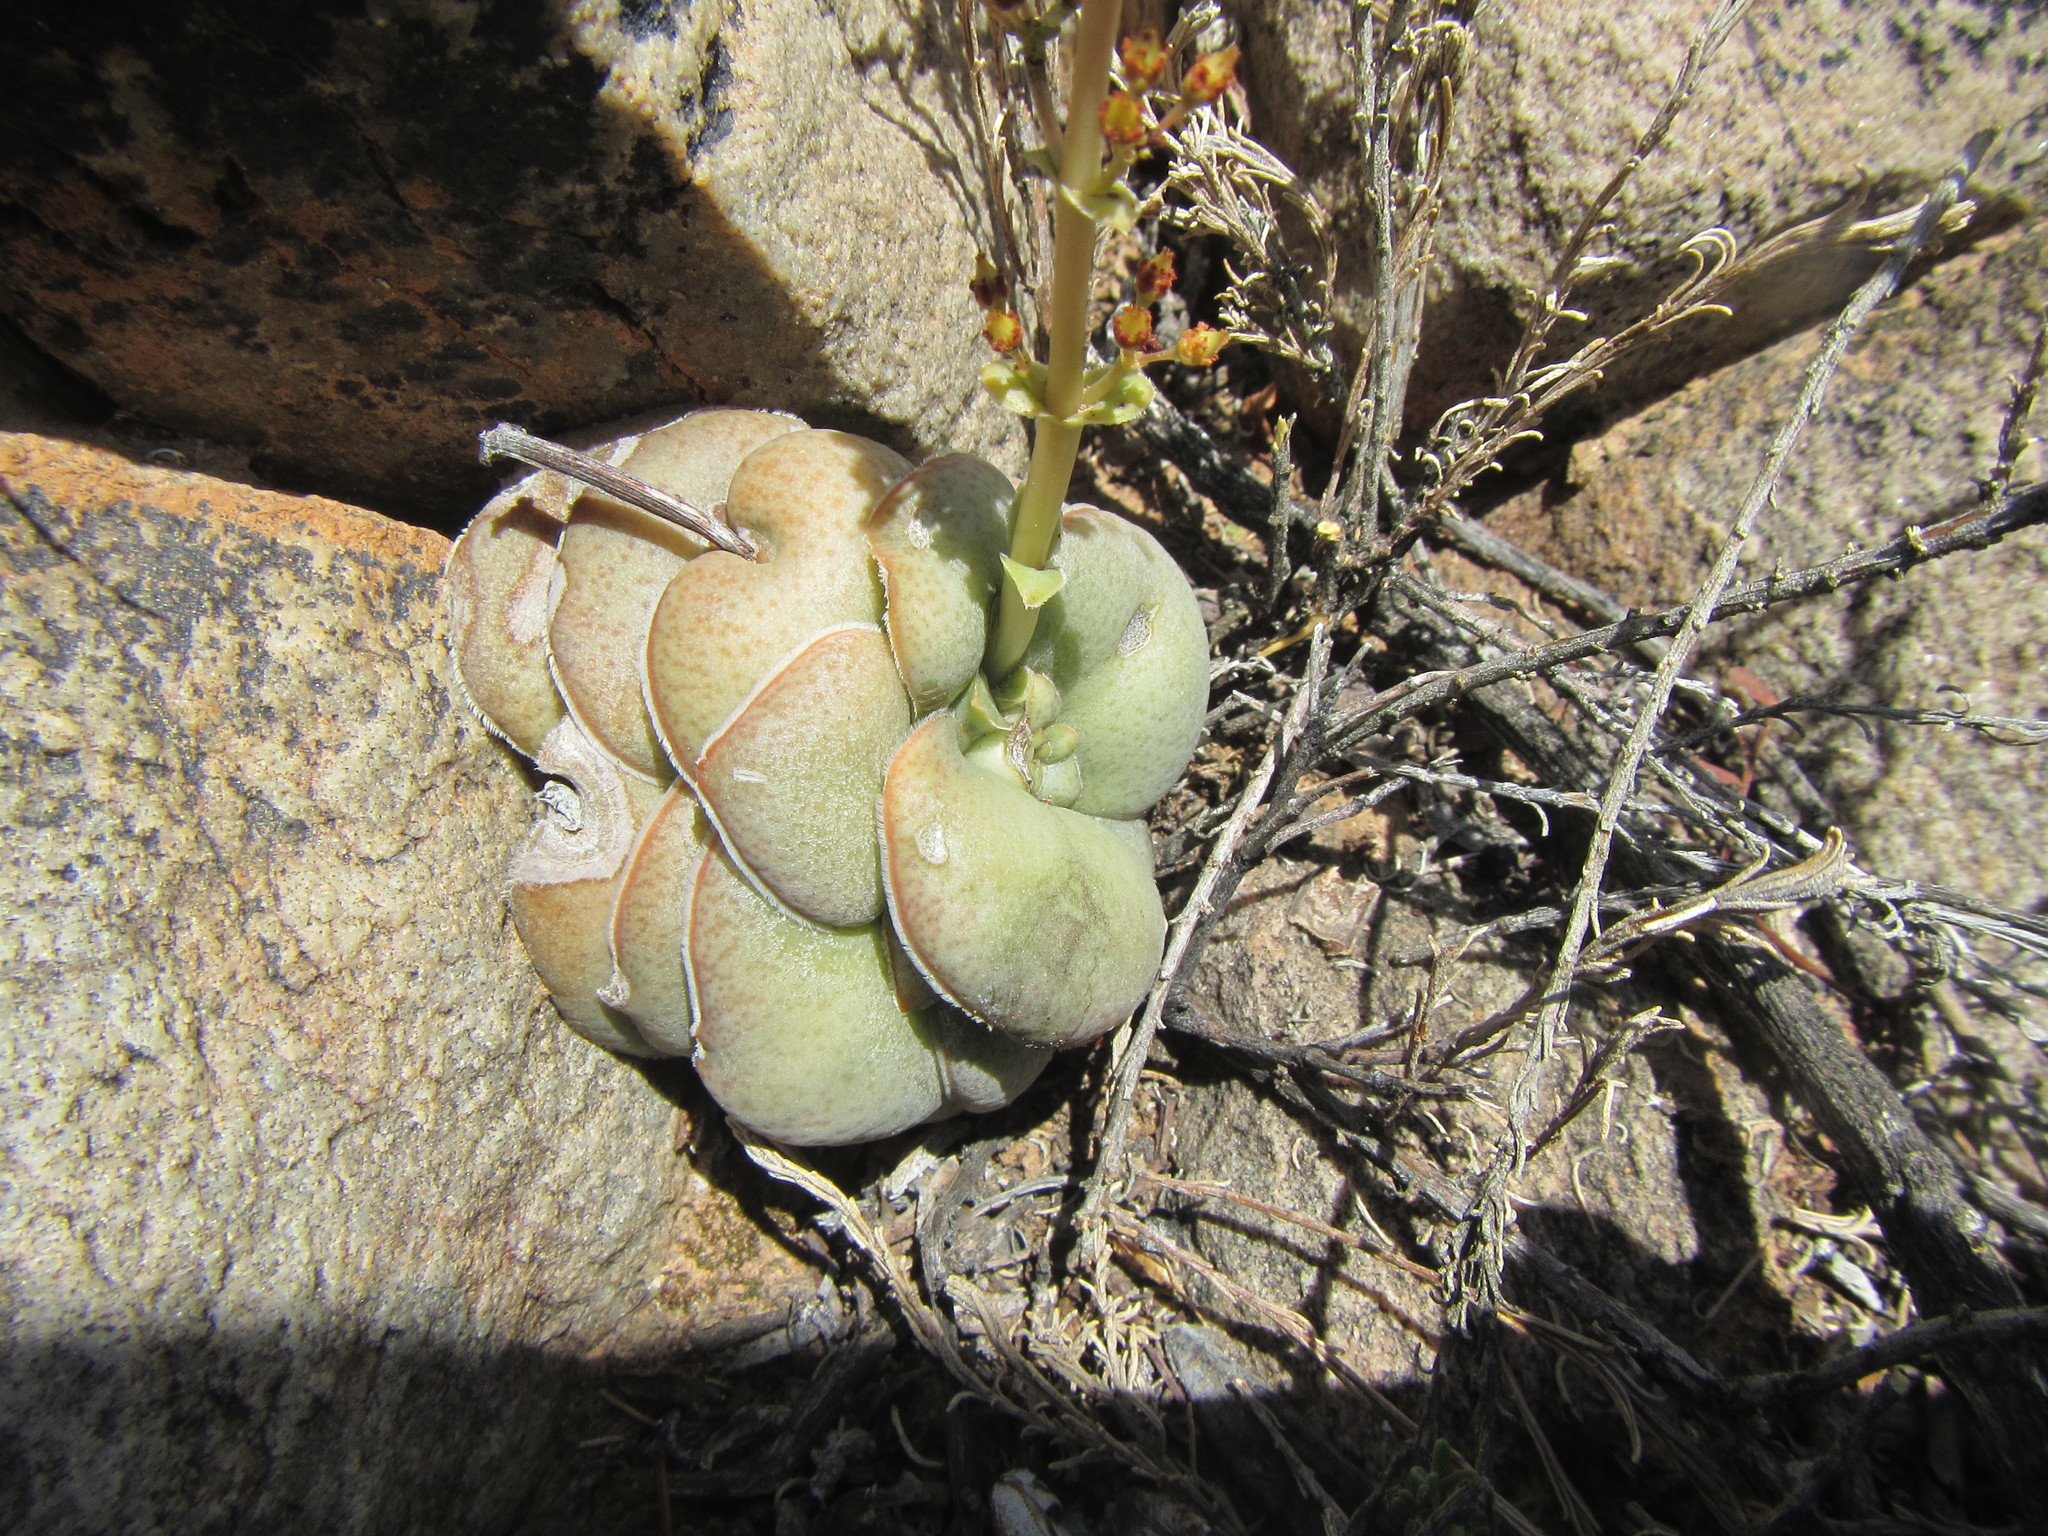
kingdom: Plantae
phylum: Tracheophyta
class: Magnoliopsida
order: Saxifragales
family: Crassulaceae
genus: Crassula
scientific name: Crassula hemisphaerica
